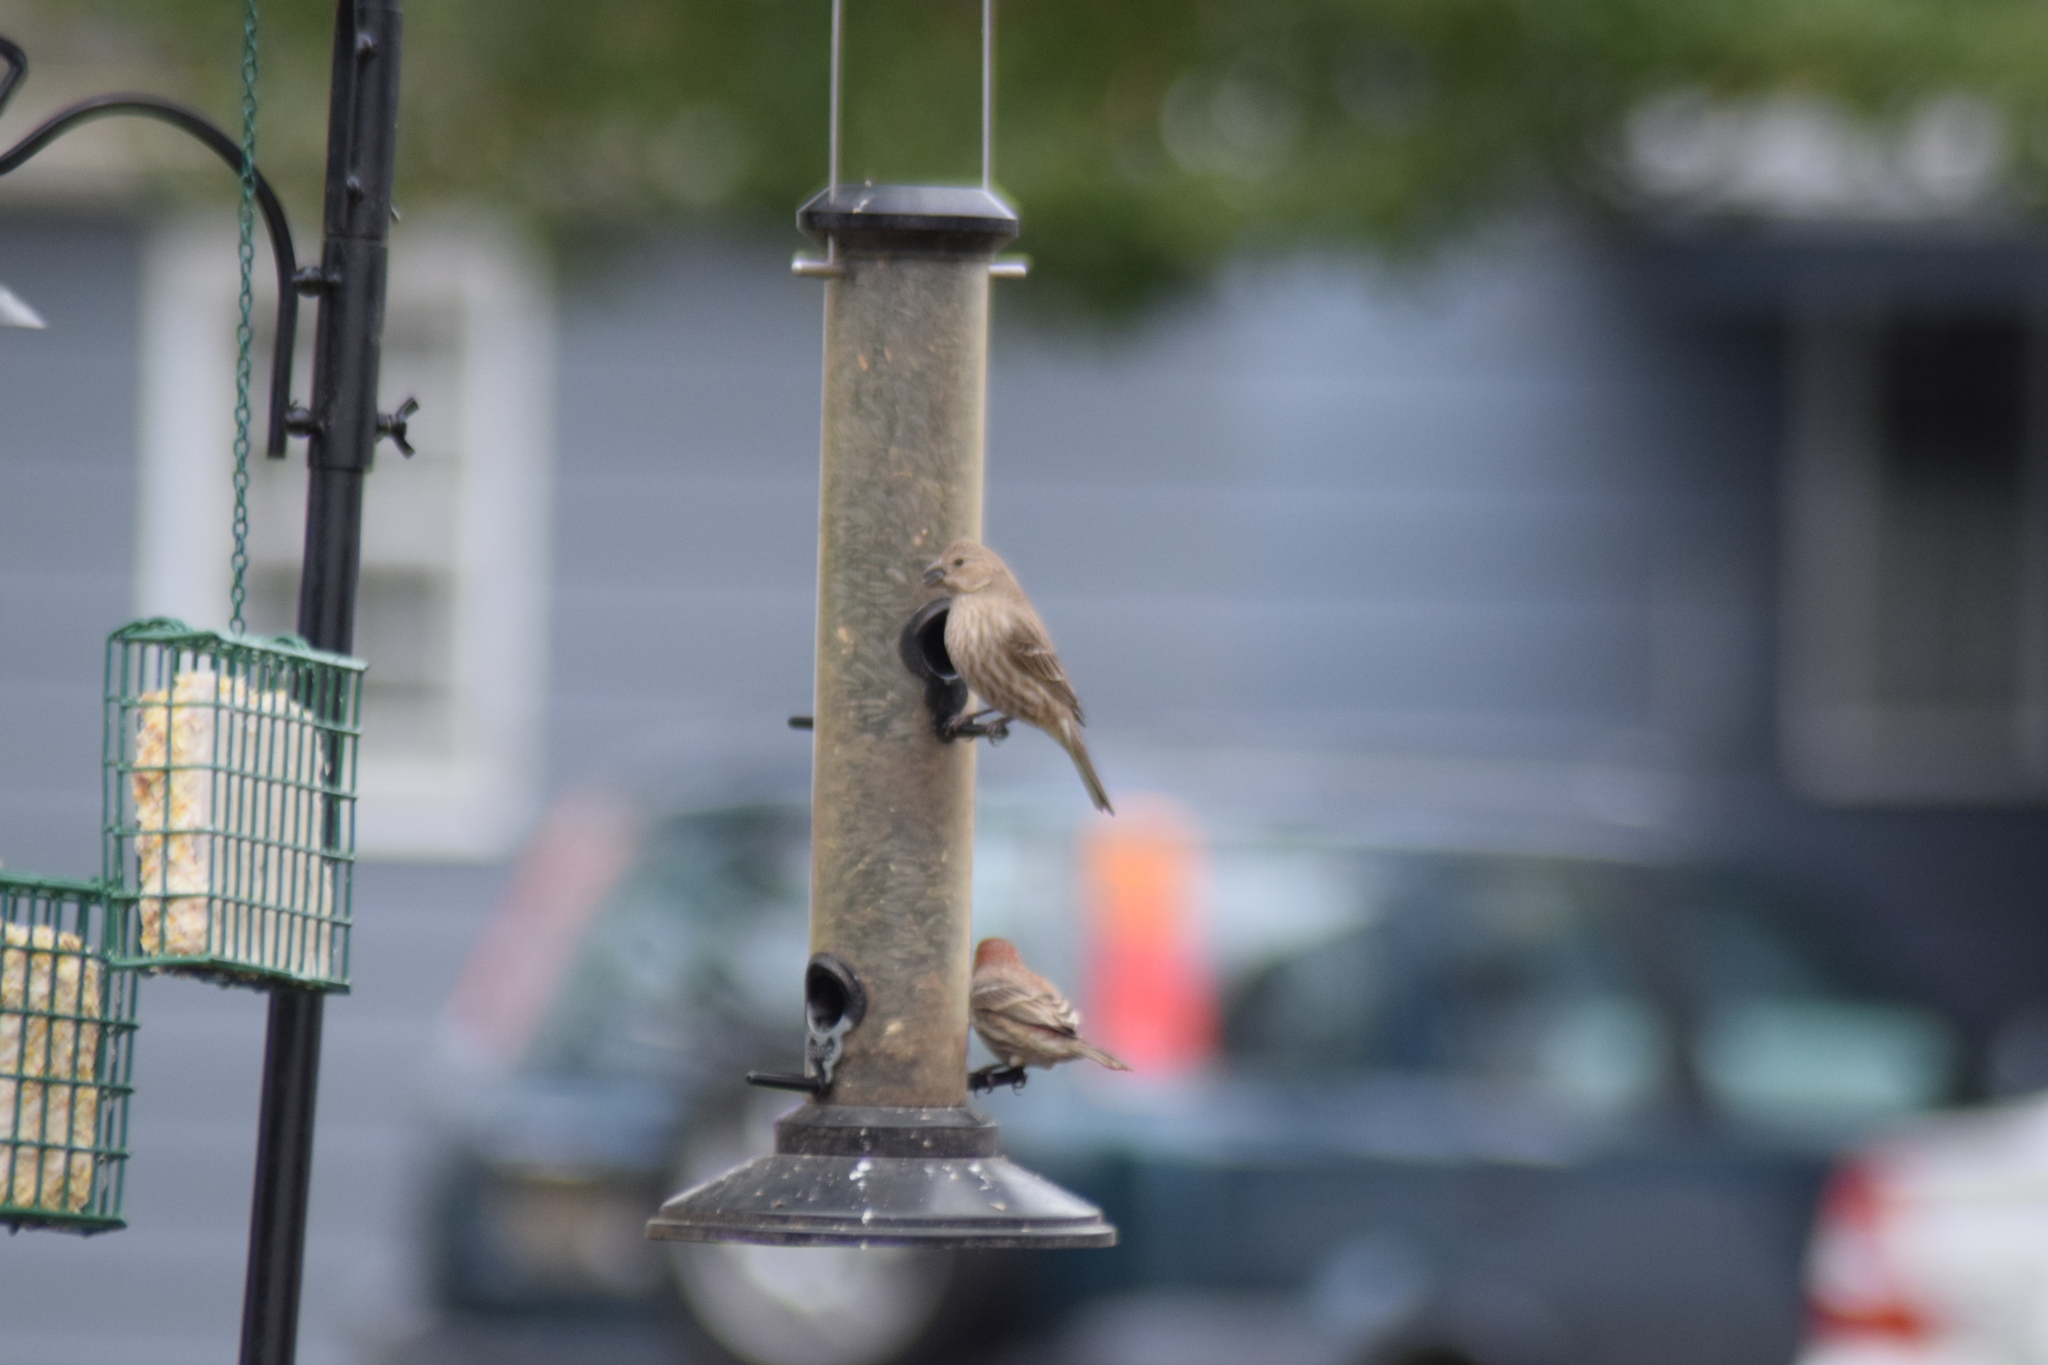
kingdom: Animalia
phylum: Chordata
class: Aves
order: Passeriformes
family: Fringillidae
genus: Haemorhous
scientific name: Haemorhous mexicanus
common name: House finch
